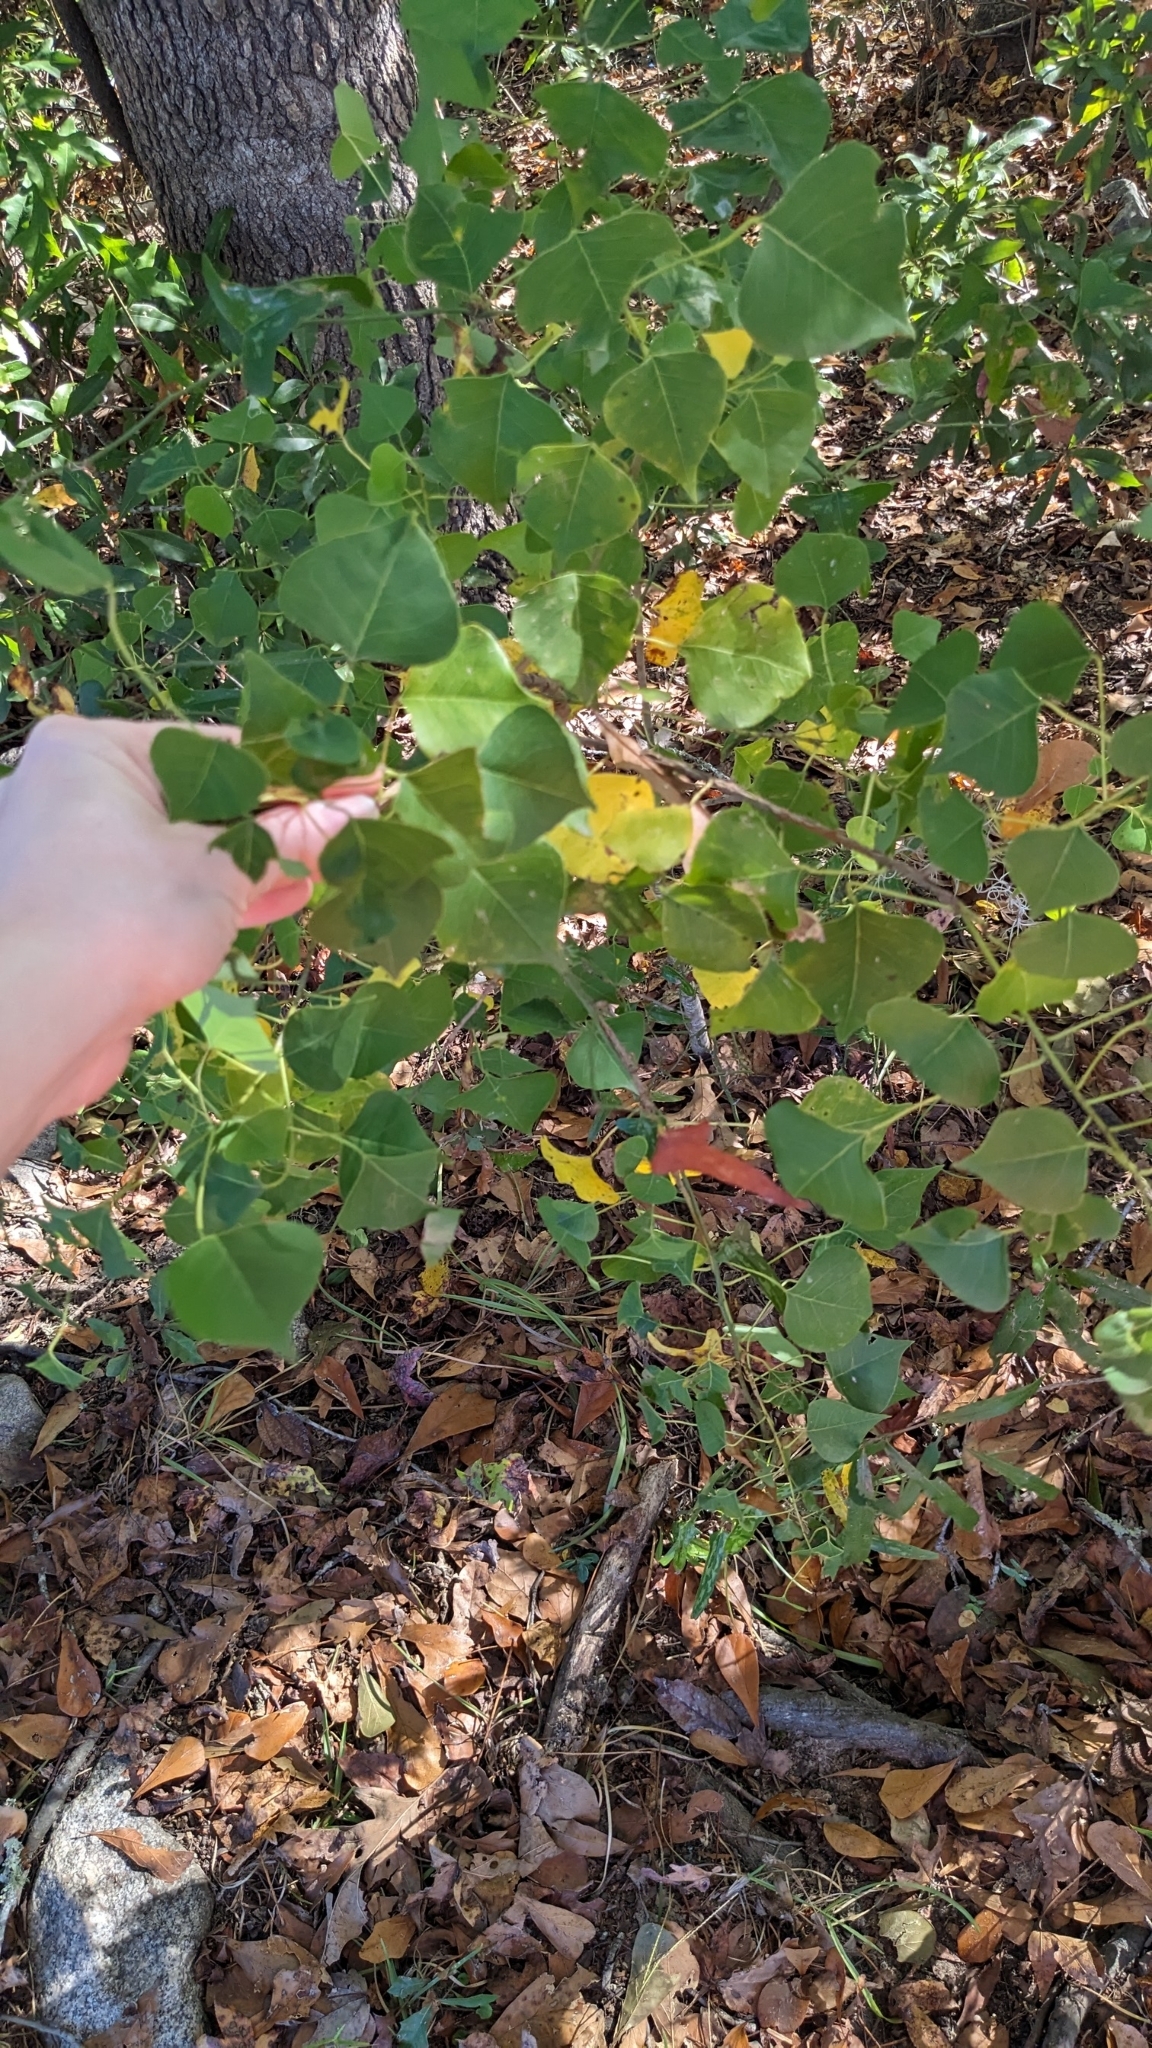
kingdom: Plantae
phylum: Tracheophyta
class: Magnoliopsida
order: Malpighiales
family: Euphorbiaceae
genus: Triadica
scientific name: Triadica sebifera
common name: Chinese tallow
